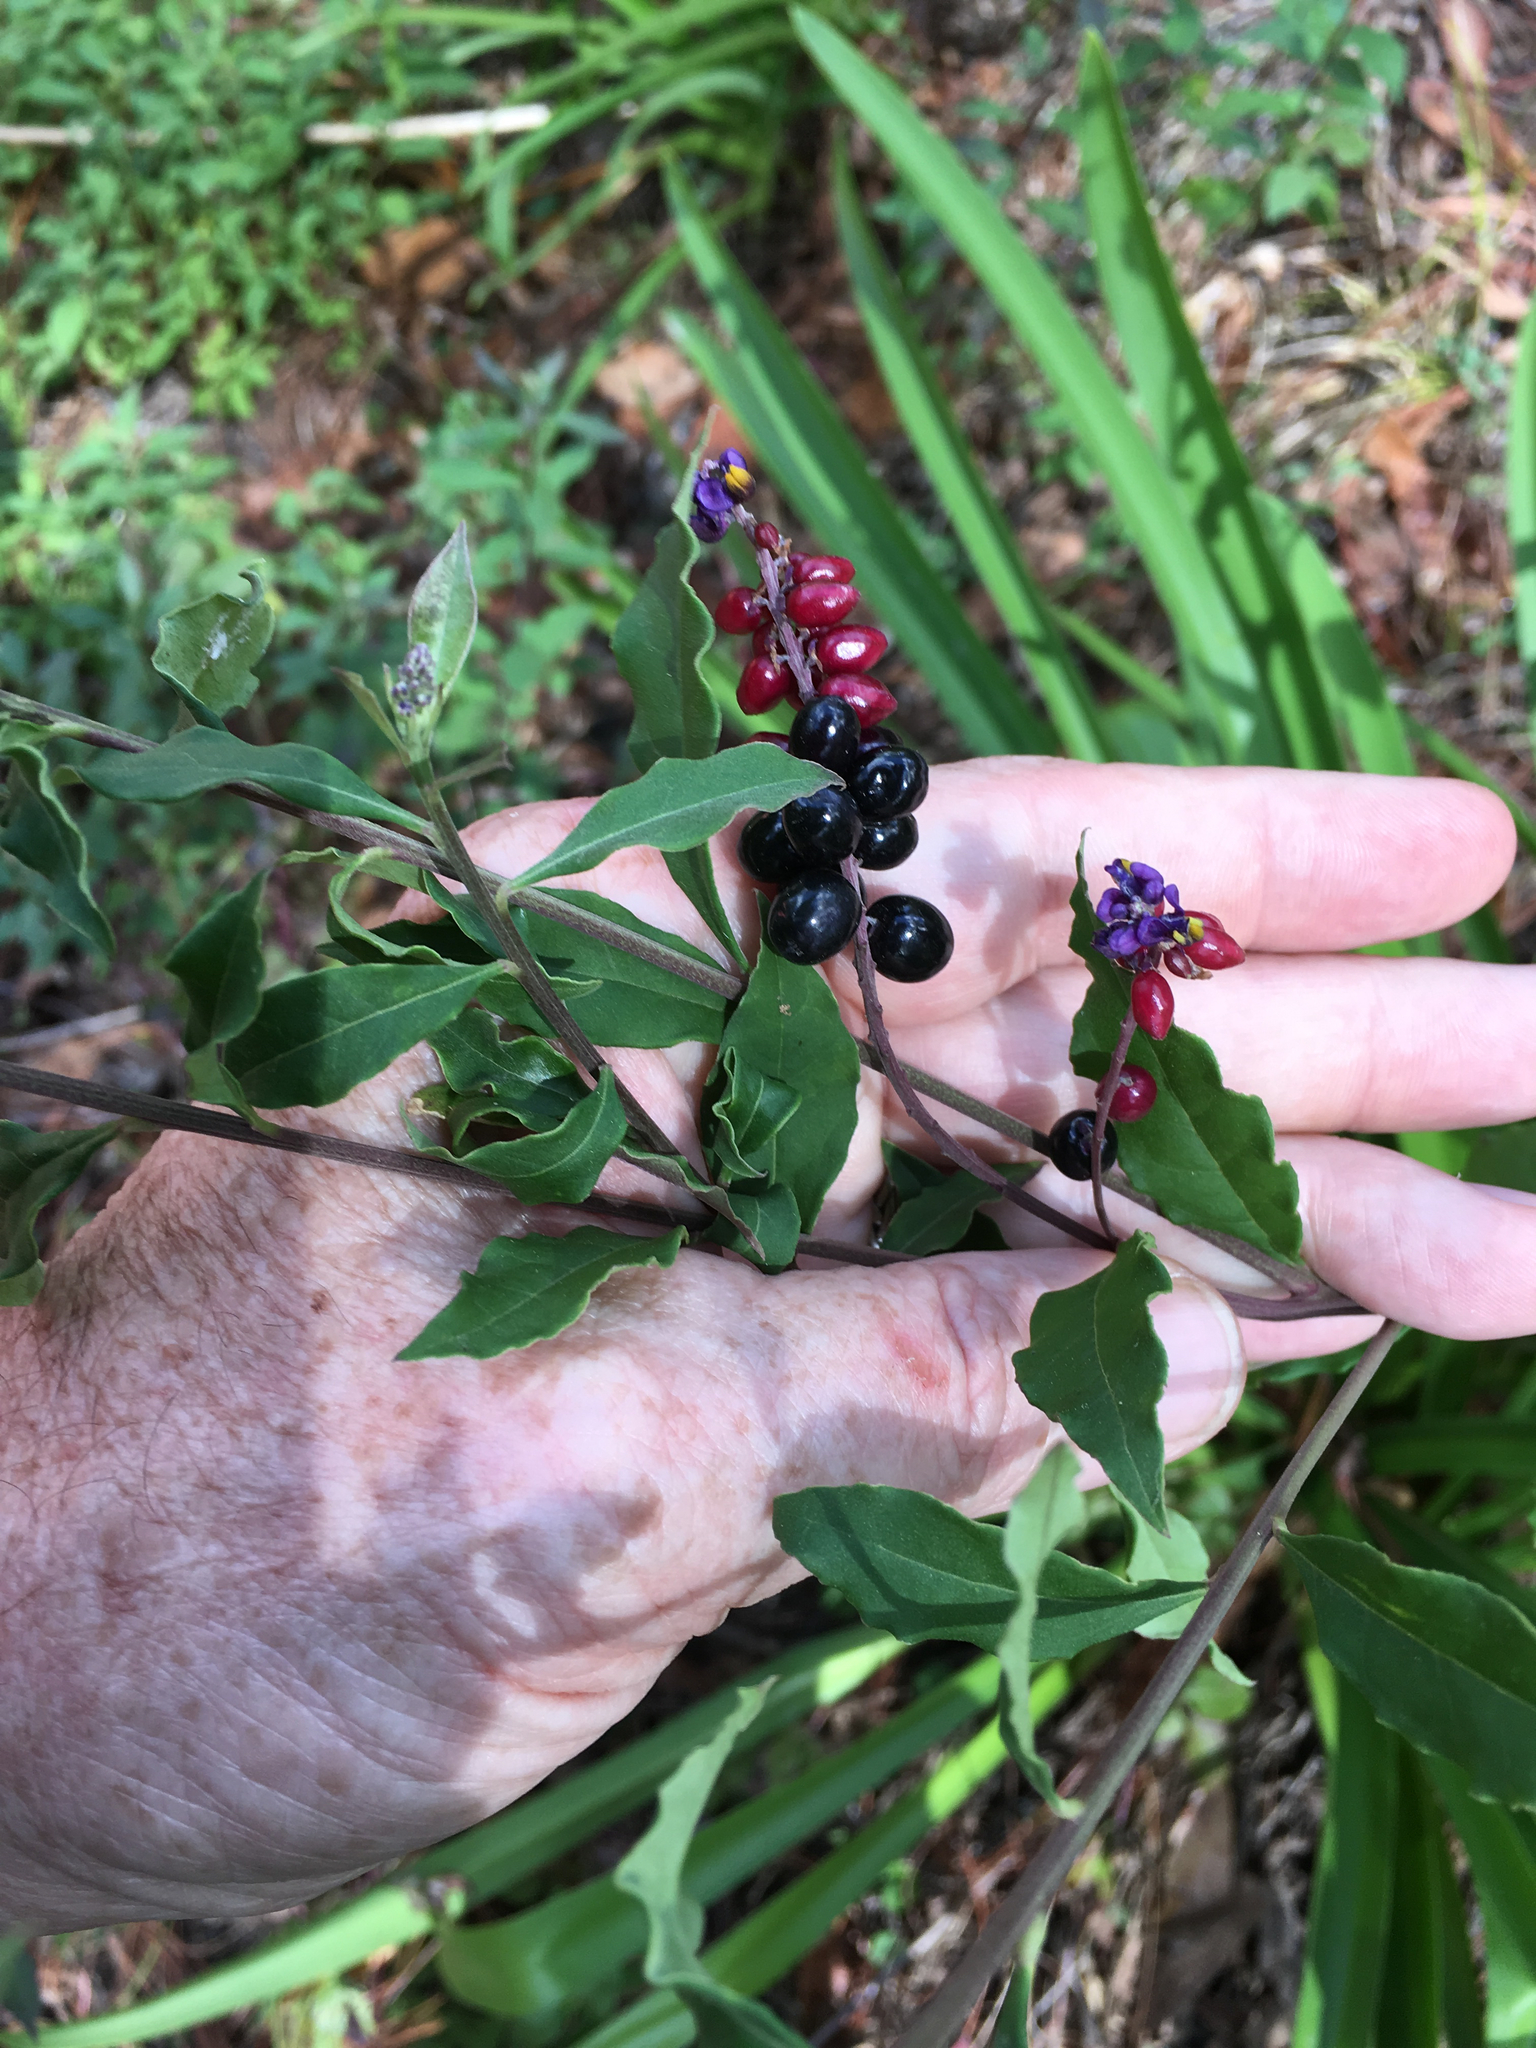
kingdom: Plantae
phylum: Tracheophyta
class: Magnoliopsida
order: Fabales
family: Polygalaceae
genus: Monnina
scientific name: Monnina xalapensis
